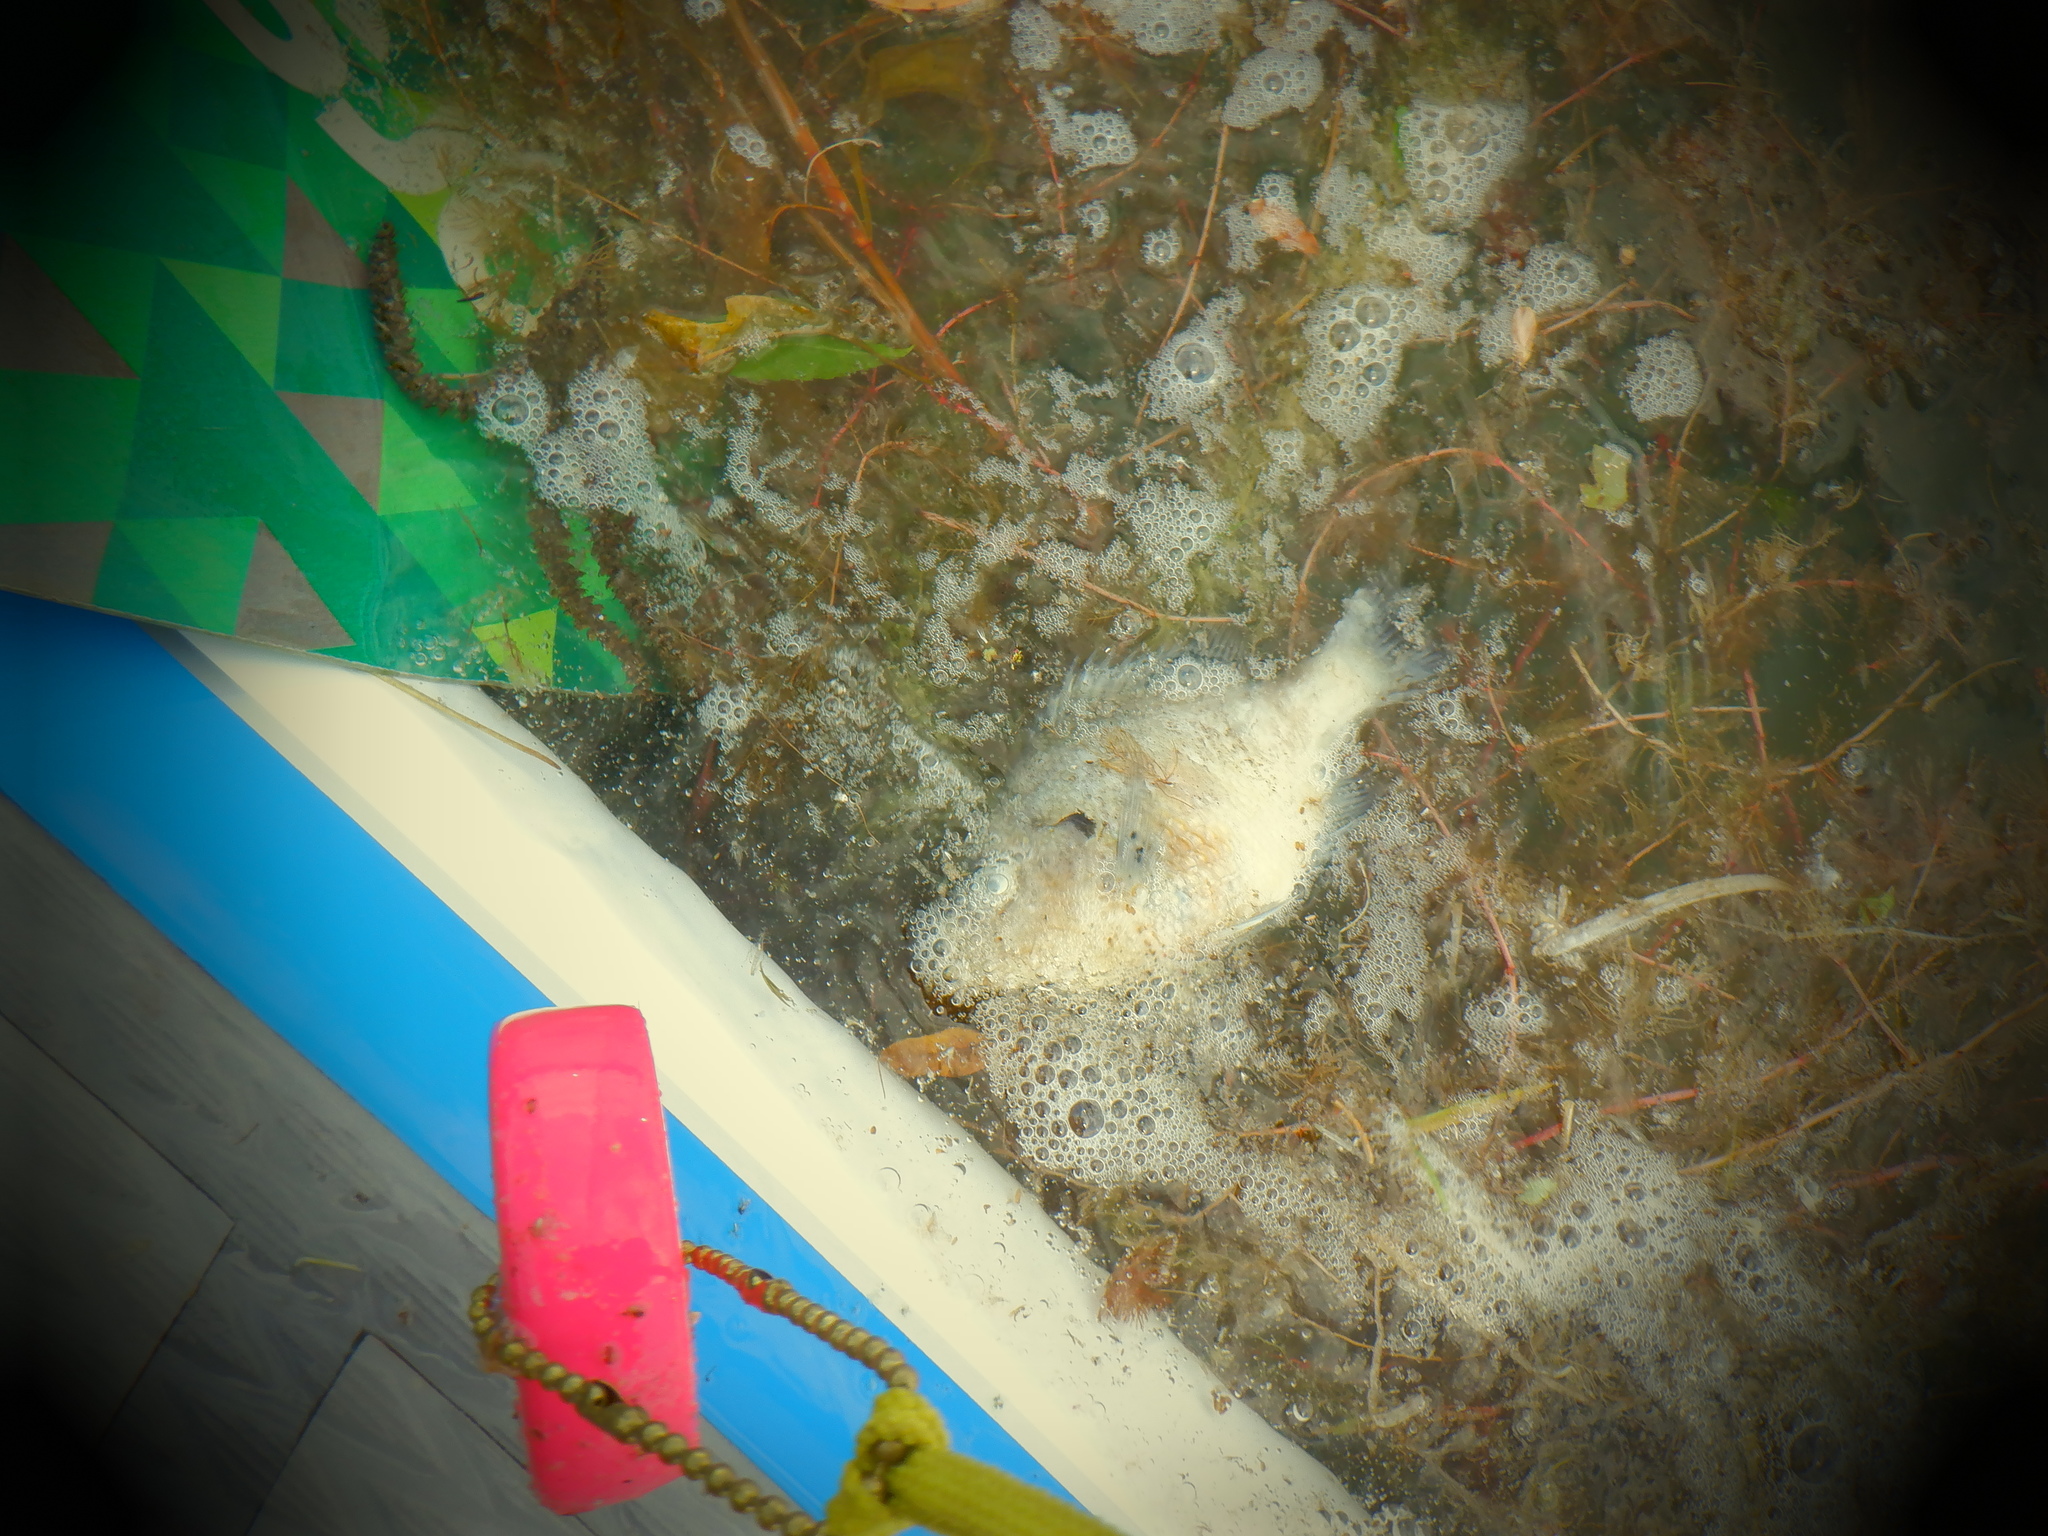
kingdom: Animalia
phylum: Chordata
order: Perciformes
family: Centrarchidae
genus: Lepomis
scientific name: Lepomis macrochirus
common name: Bluegill
